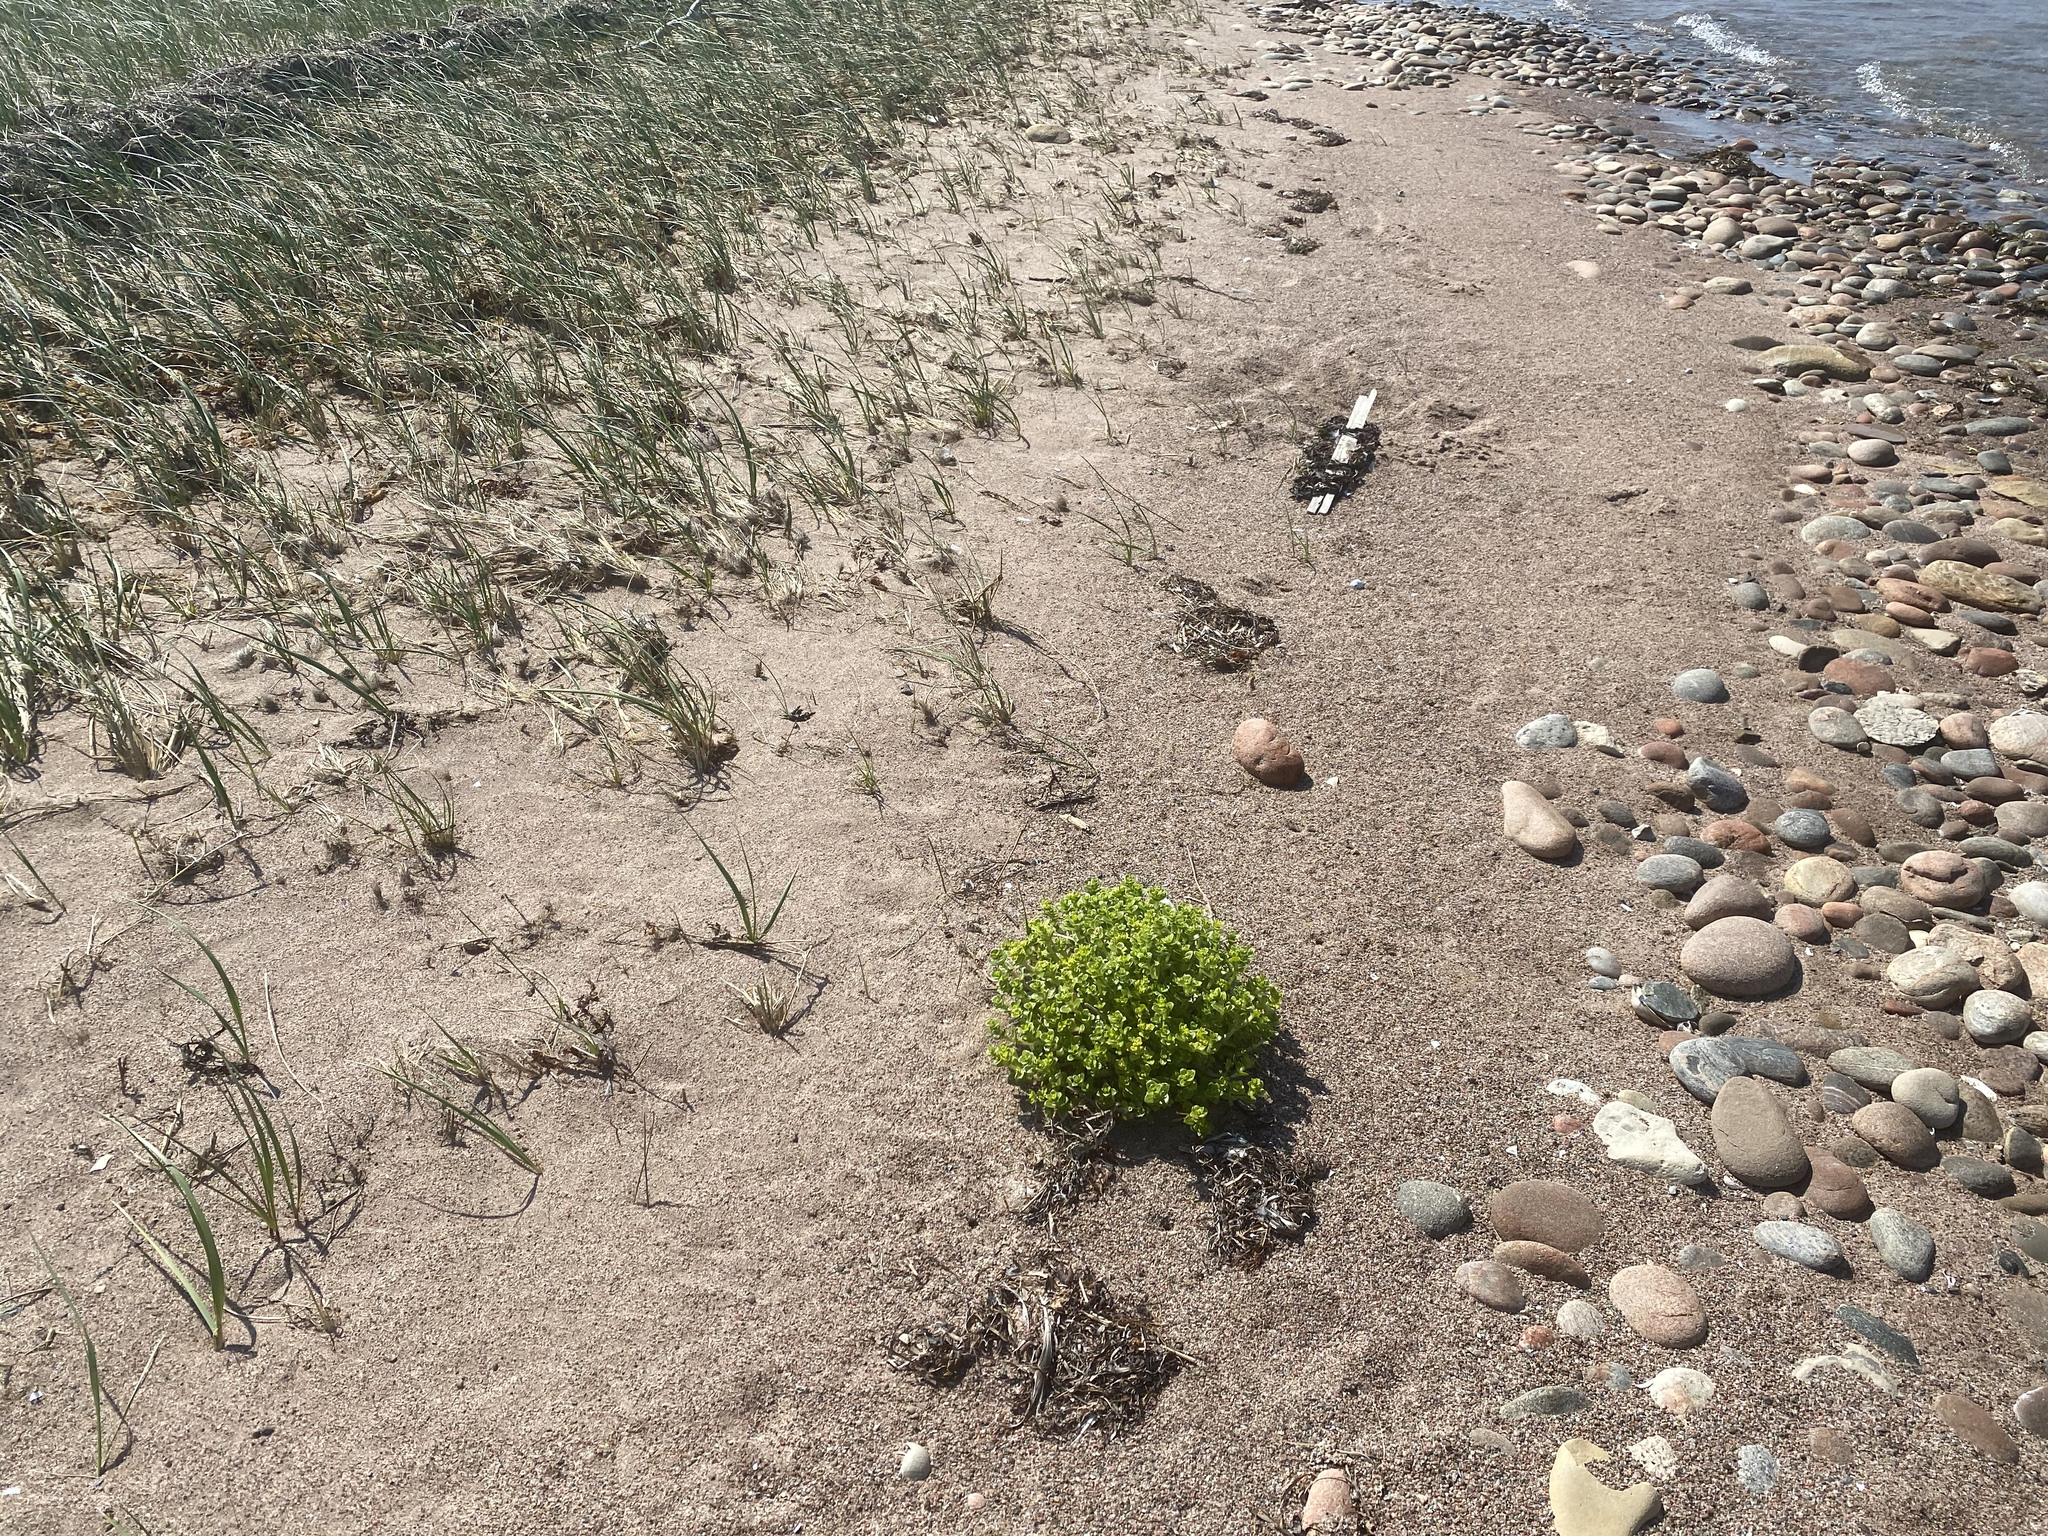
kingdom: Plantae
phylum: Tracheophyta
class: Magnoliopsida
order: Caryophyllales
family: Caryophyllaceae
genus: Honckenya
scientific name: Honckenya peploides
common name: Sea sandwort
